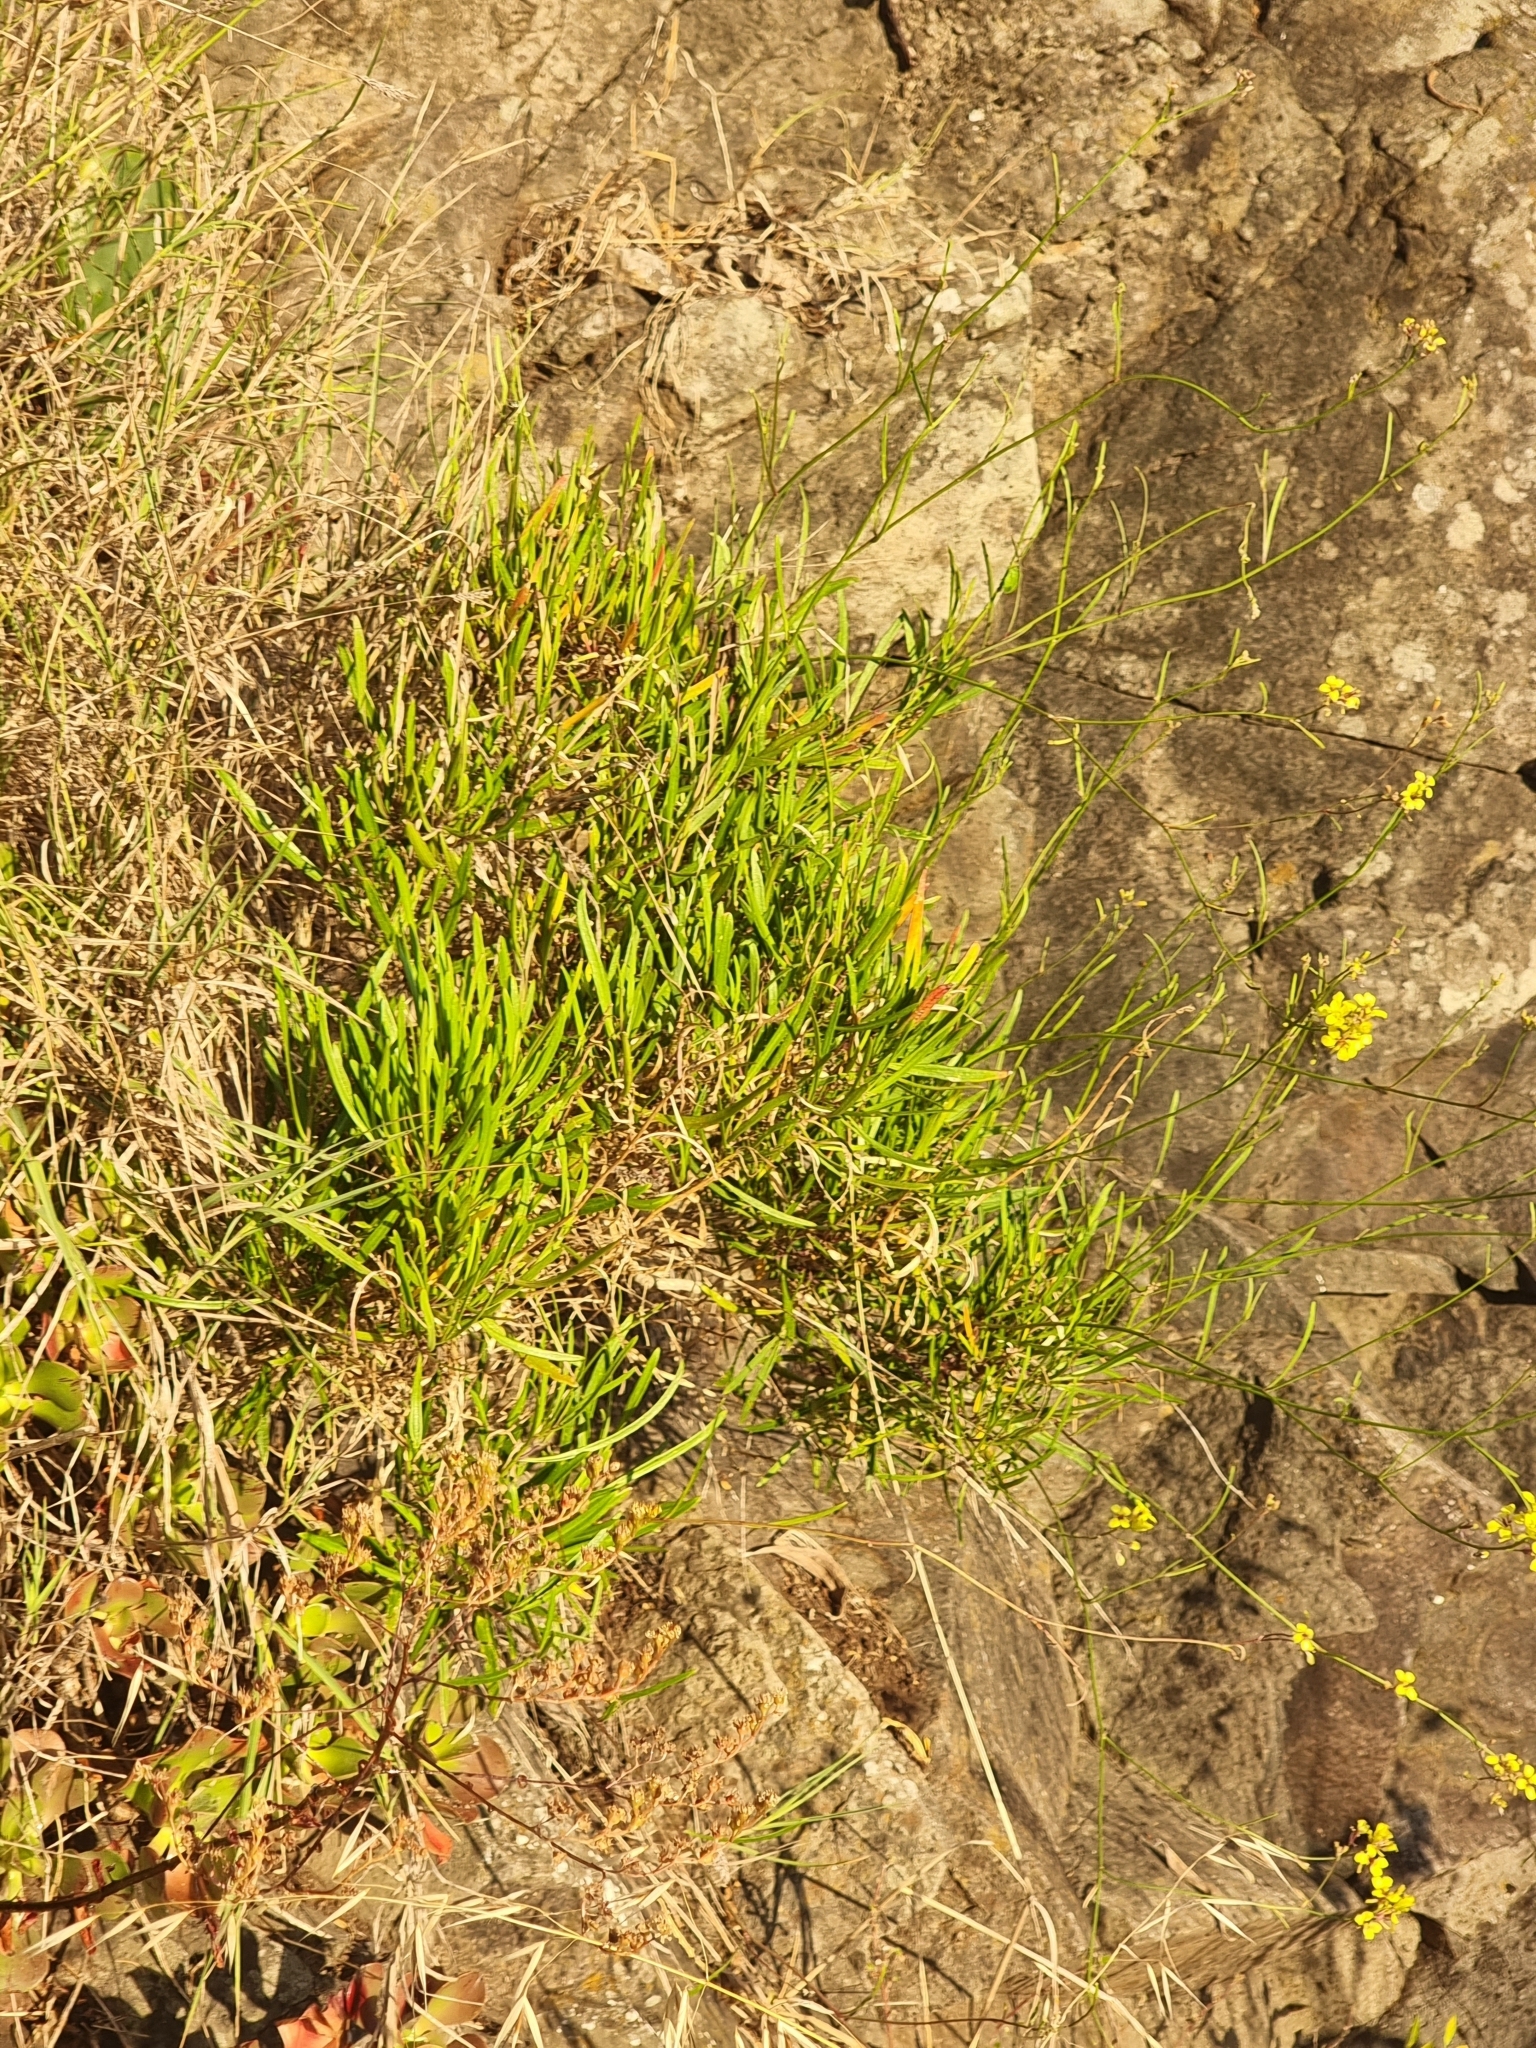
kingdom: Plantae
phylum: Tracheophyta
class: Magnoliopsida
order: Brassicales
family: Brassicaceae
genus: Sinapidendron
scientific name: Sinapidendron angustifolium
